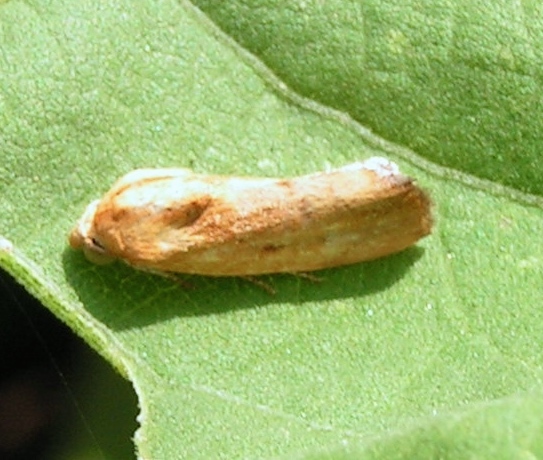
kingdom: Animalia
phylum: Arthropoda
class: Insecta
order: Lepidoptera
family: Noctuidae
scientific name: Noctuidae
